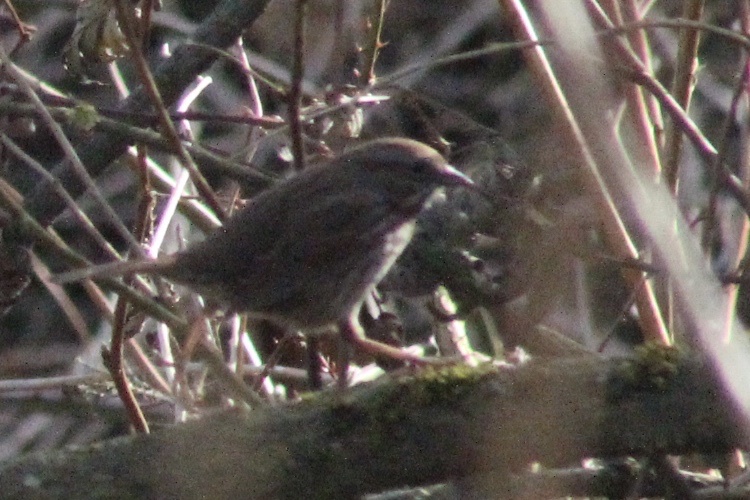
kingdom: Animalia
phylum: Chordata
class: Aves
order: Passeriformes
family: Passerellidae
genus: Melospiza
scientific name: Melospiza melodia
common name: Song sparrow
